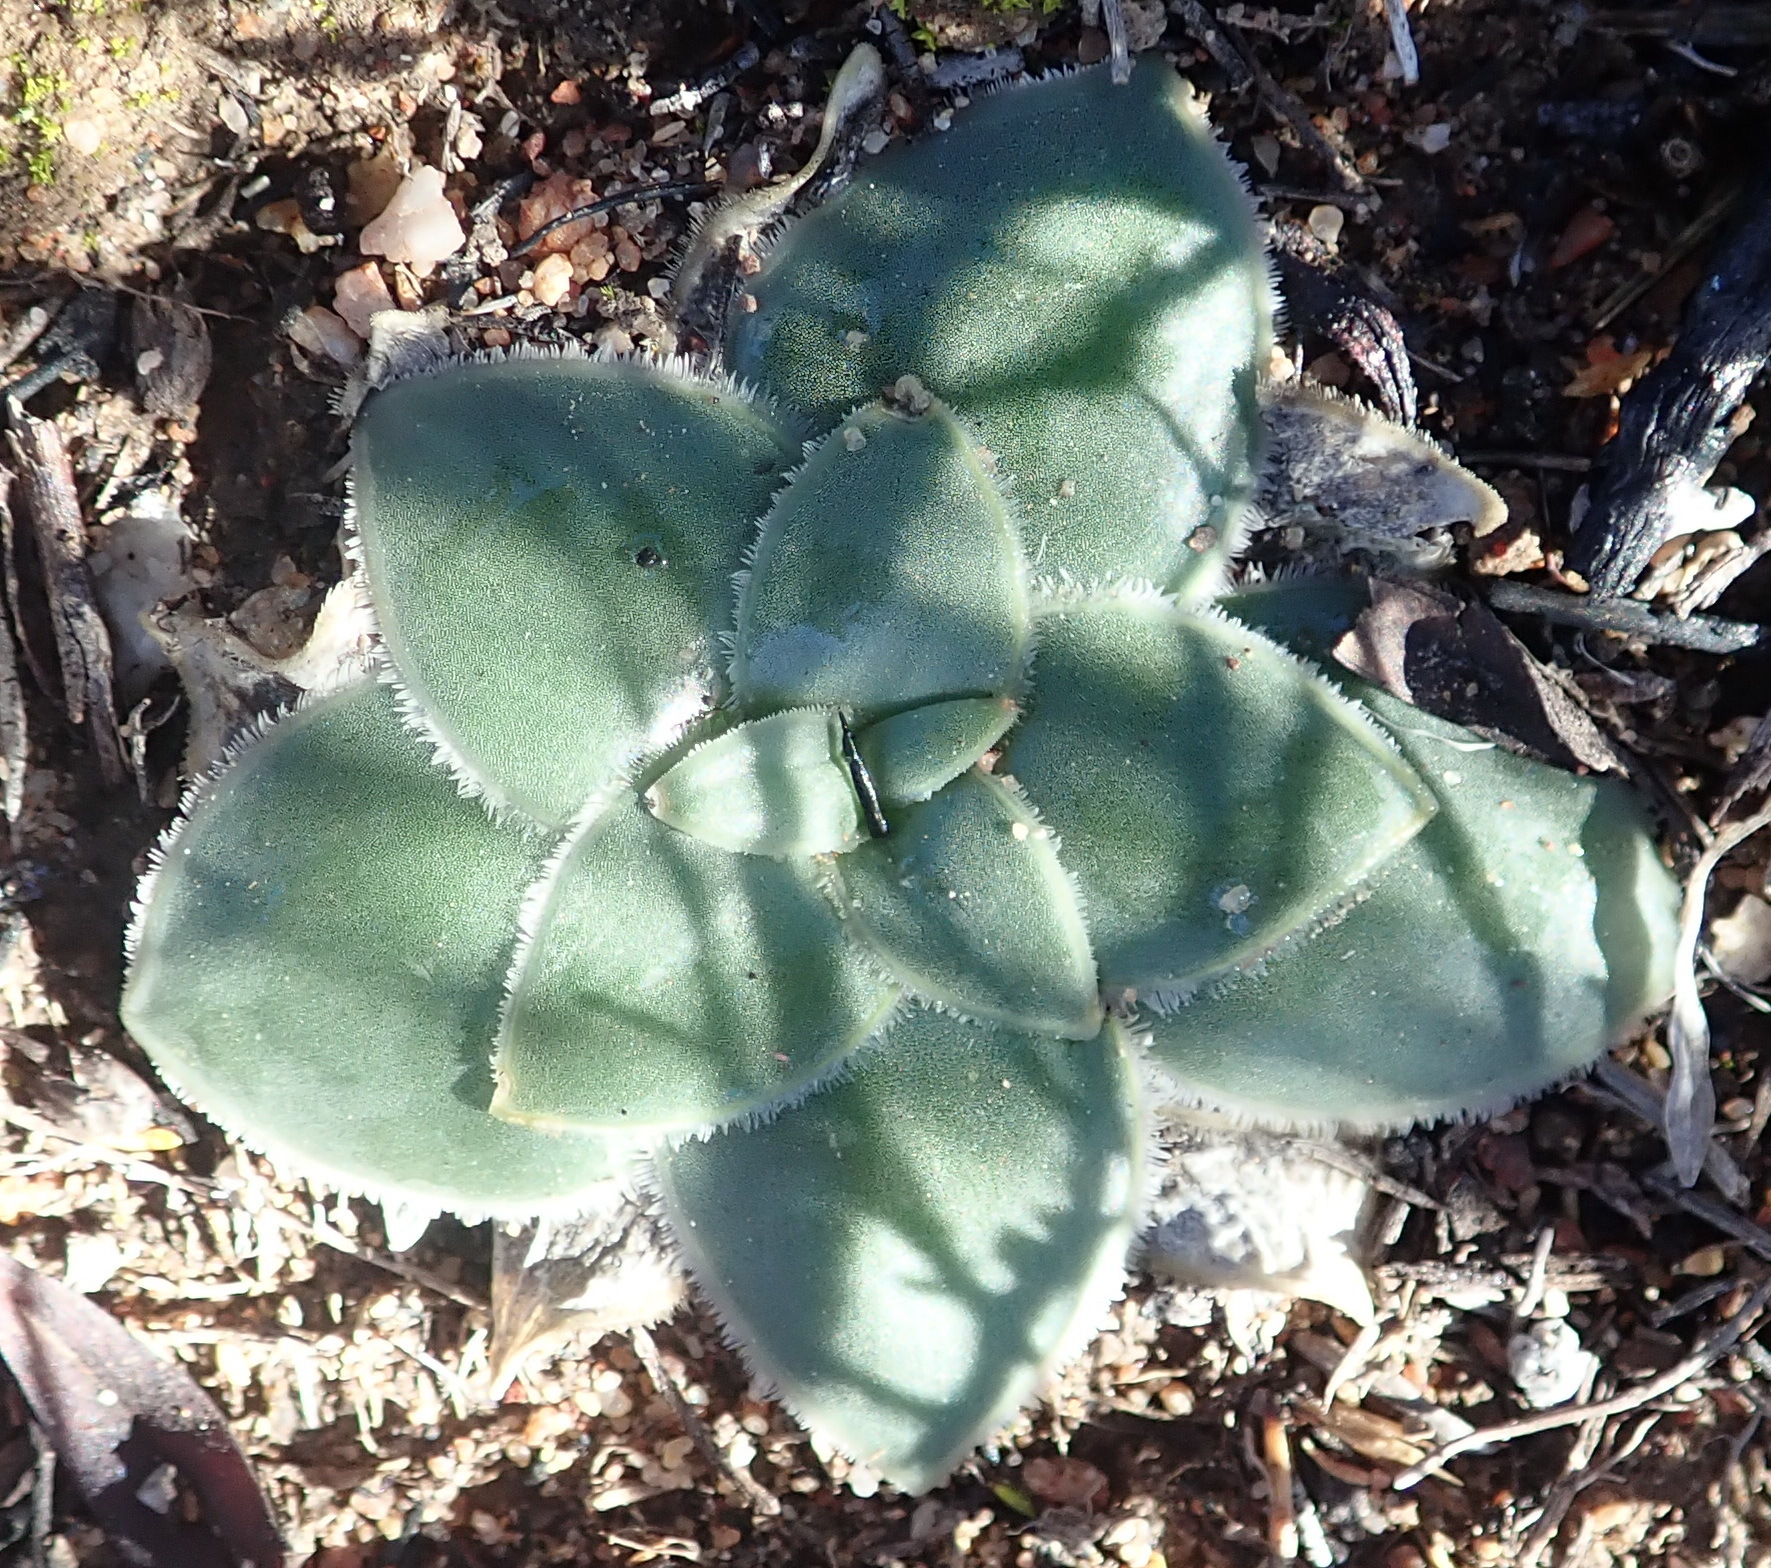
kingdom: Plantae
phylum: Tracheophyta
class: Liliopsida
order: Asparagales
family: Asparagaceae
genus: Drimia
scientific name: Drimia ciliata
